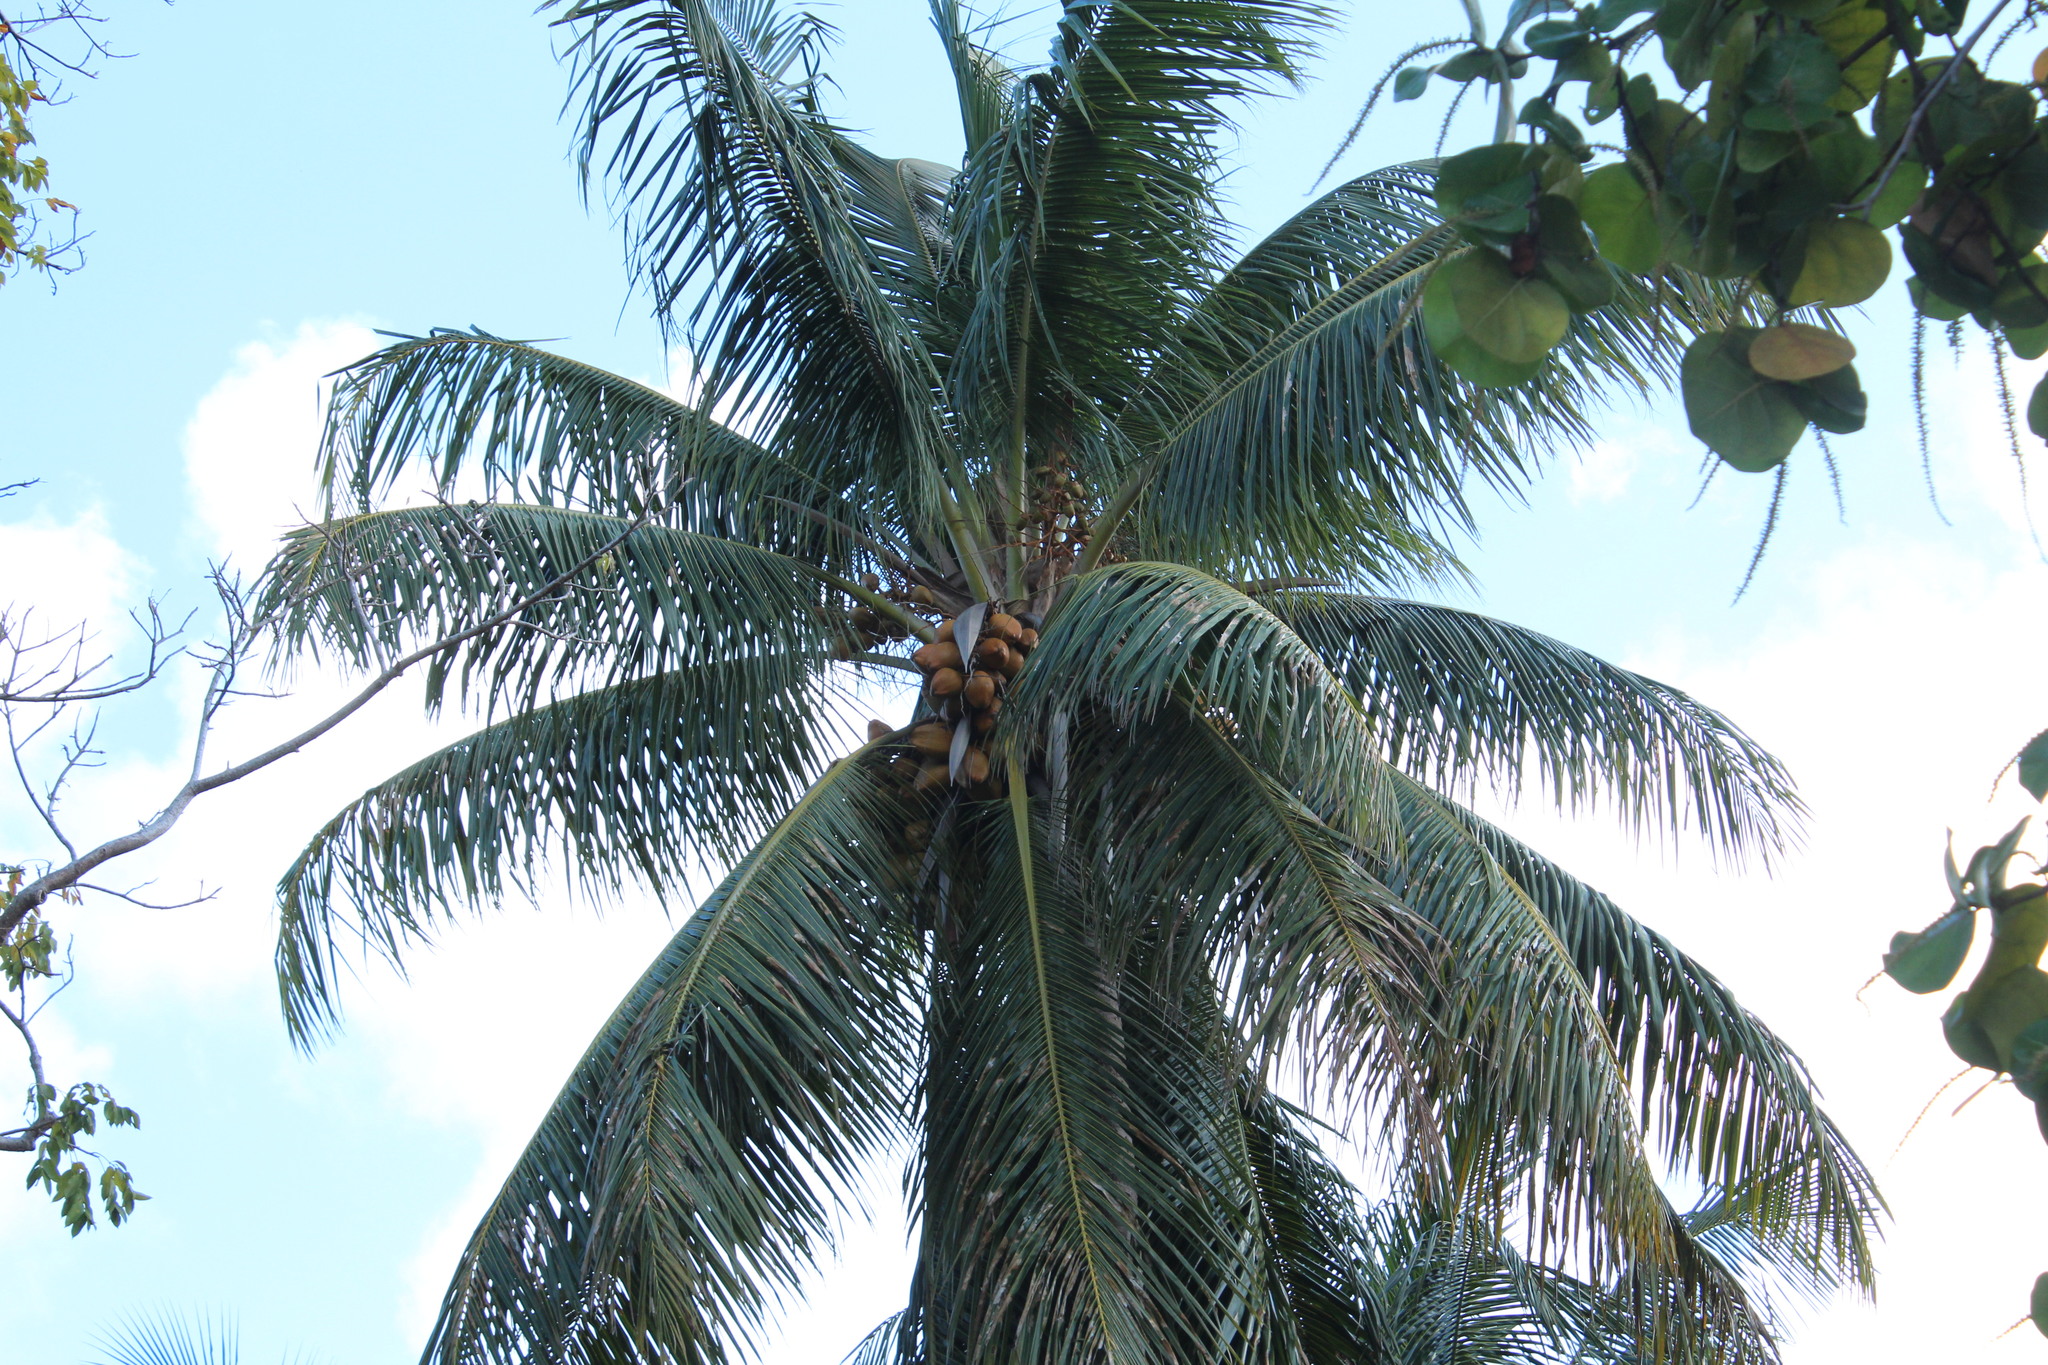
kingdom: Plantae
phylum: Tracheophyta
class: Liliopsida
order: Arecales
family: Arecaceae
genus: Cocos
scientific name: Cocos nucifera
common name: Coconut palm
